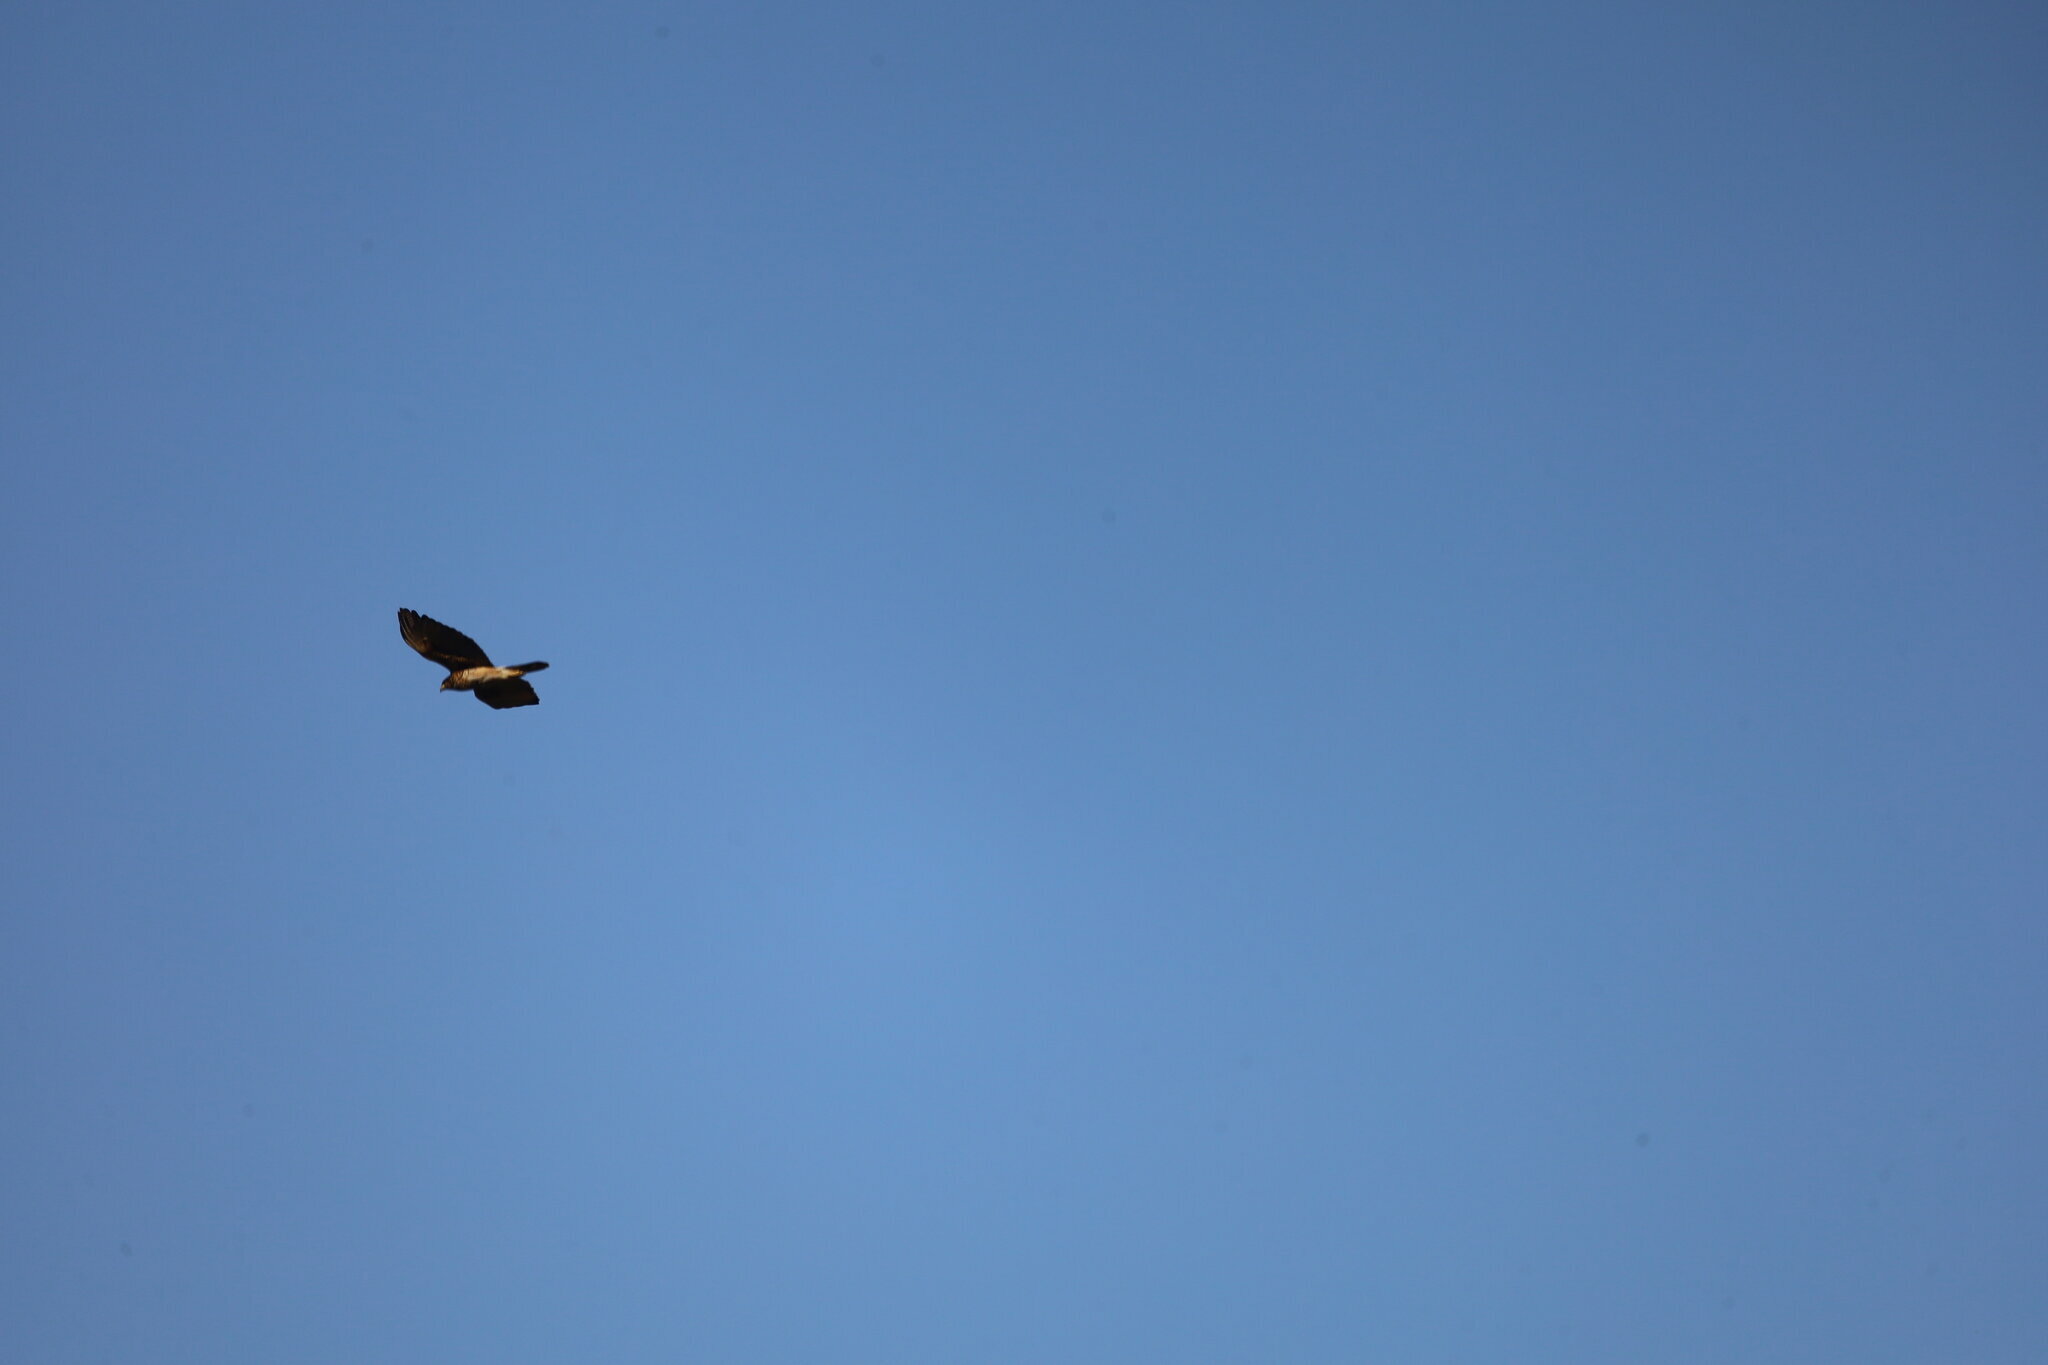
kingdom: Animalia
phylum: Chordata
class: Aves
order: Accipitriformes
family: Accipitridae
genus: Parabuteo
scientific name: Parabuteo unicinctus
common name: Harris's hawk
